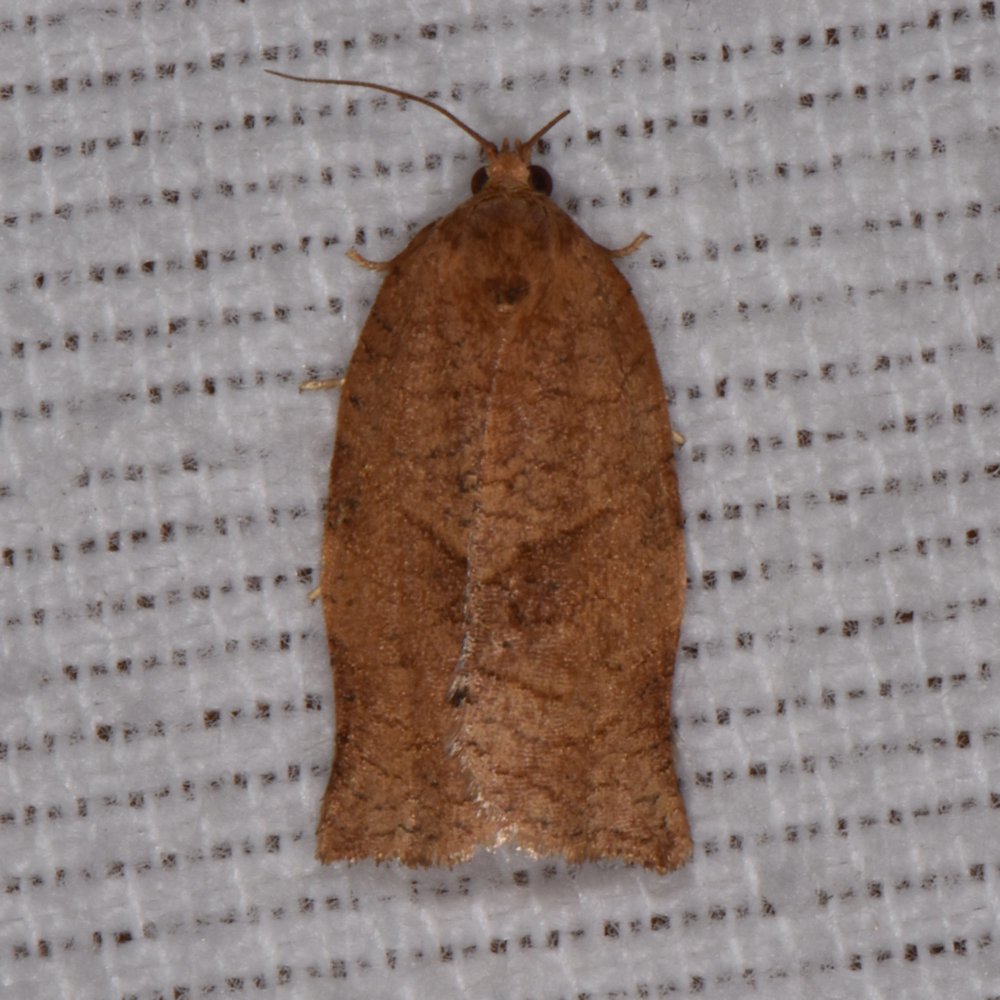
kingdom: Animalia
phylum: Arthropoda
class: Insecta
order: Lepidoptera
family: Tortricidae
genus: Choristoneura
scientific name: Choristoneura rosaceana
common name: Oblique-banded leafroller moth
